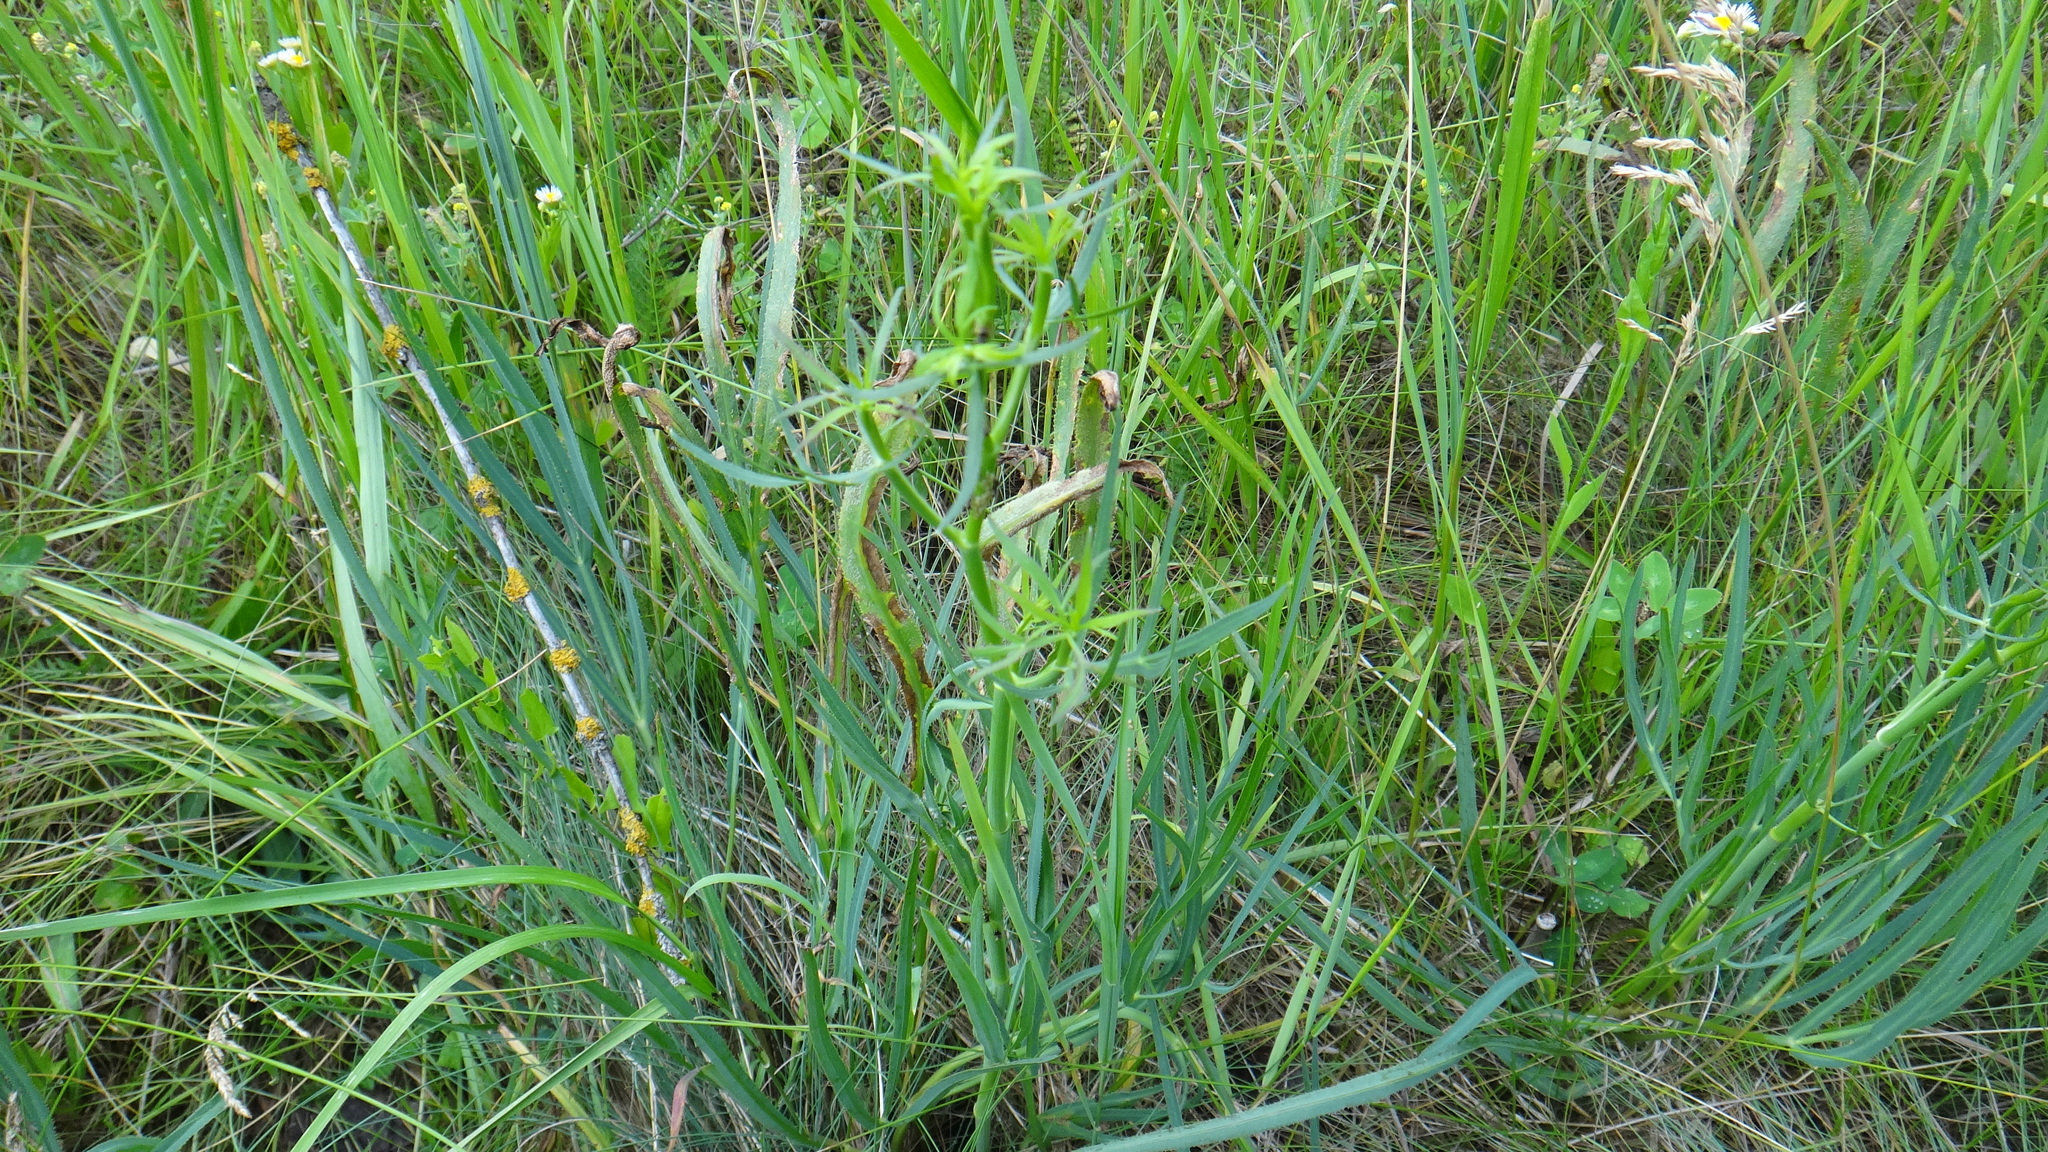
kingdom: Plantae
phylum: Tracheophyta
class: Magnoliopsida
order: Apiales
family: Apiaceae
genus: Falcaria
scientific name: Falcaria vulgaris
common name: Longleaf
